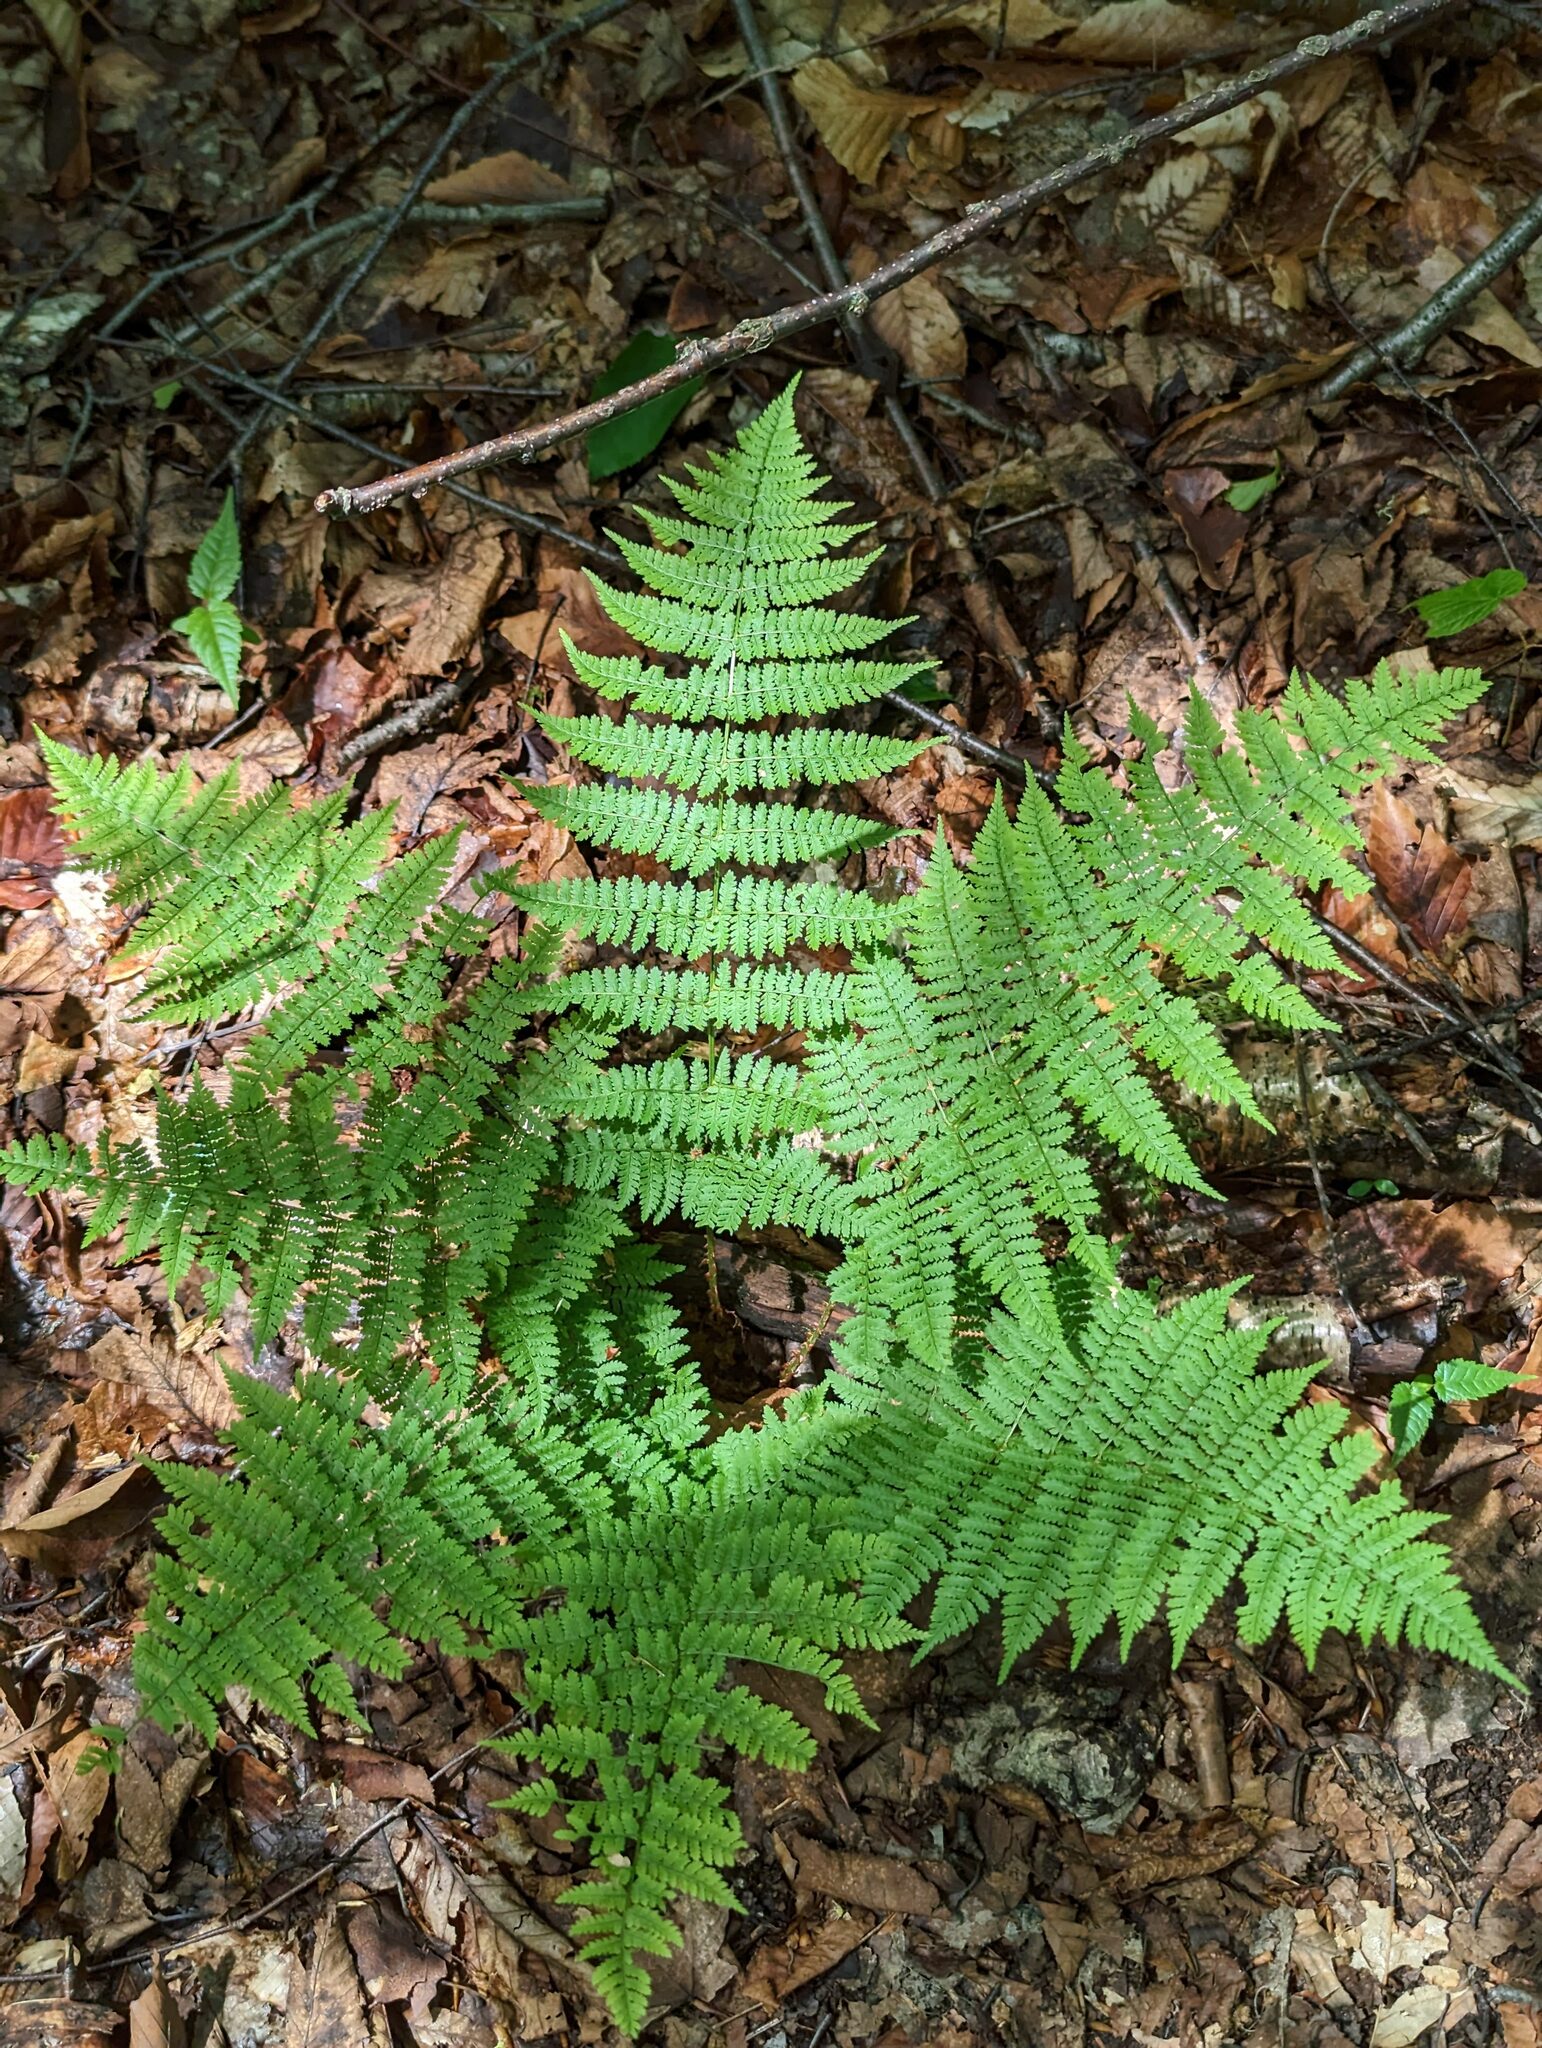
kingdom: Plantae
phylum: Tracheophyta
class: Polypodiopsida
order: Polypodiales
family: Dryopteridaceae
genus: Dryopteris
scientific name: Dryopteris intermedia
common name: Evergreen wood fern
